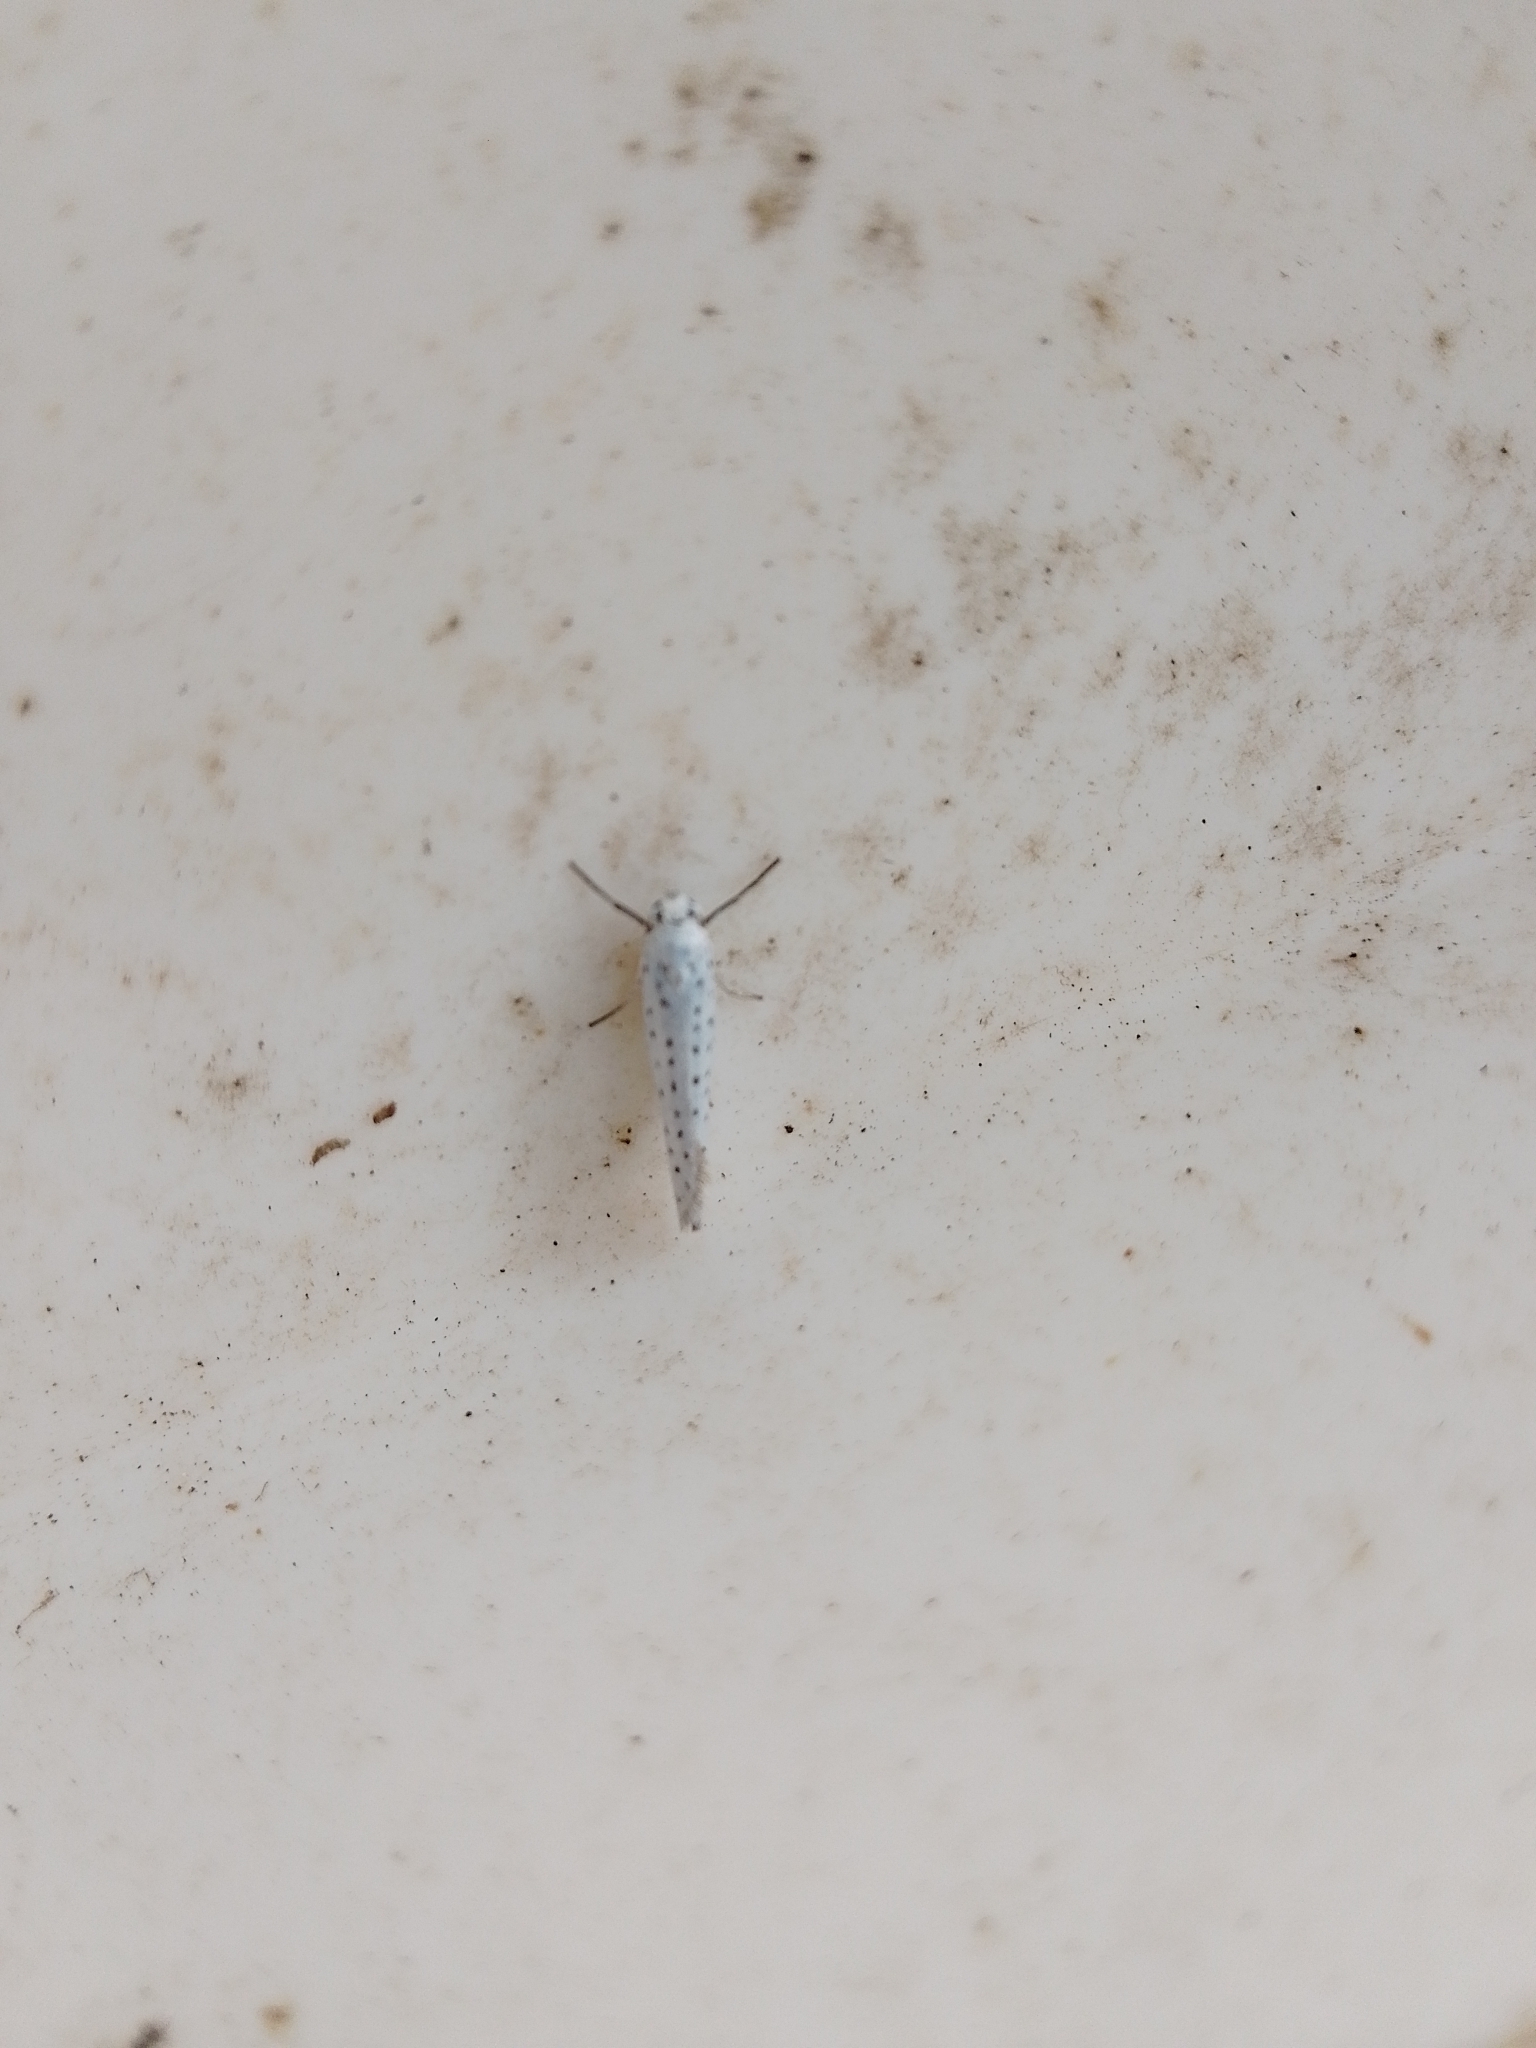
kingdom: Animalia
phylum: Arthropoda
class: Insecta
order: Lepidoptera
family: Yponomeutidae
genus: Yponomeuta
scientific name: Yponomeuta evonymella
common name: Bird-cherry ermine
